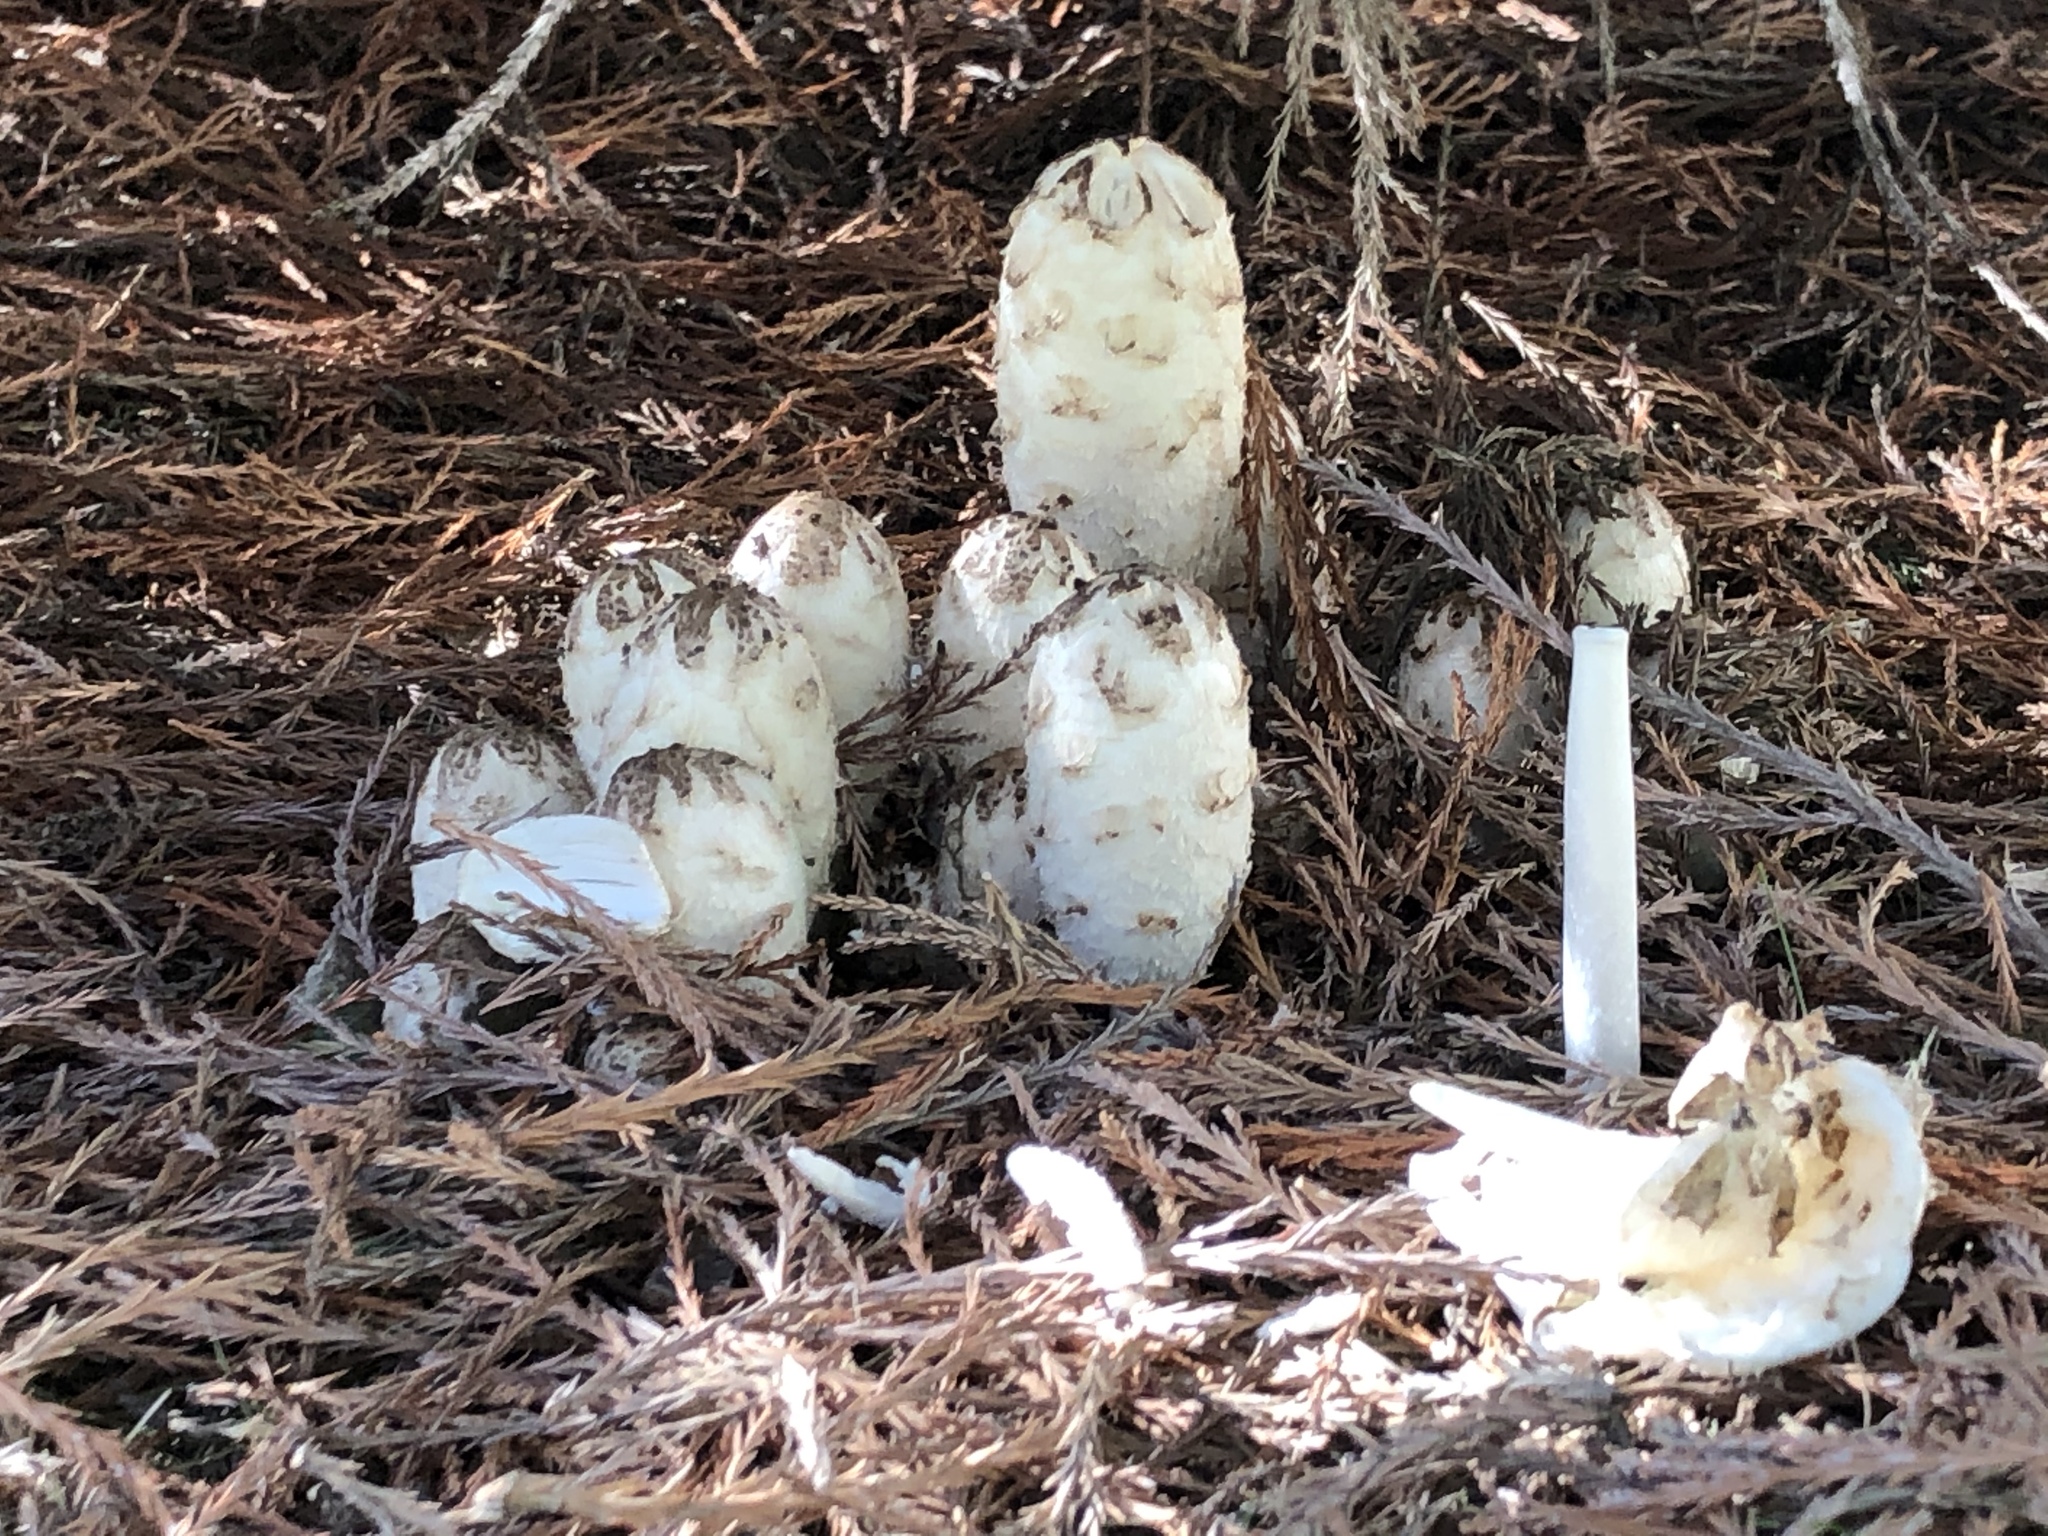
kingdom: Fungi
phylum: Basidiomycota
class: Agaricomycetes
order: Agaricales
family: Agaricaceae
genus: Coprinus
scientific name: Coprinus comatus
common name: Lawyer's wig
